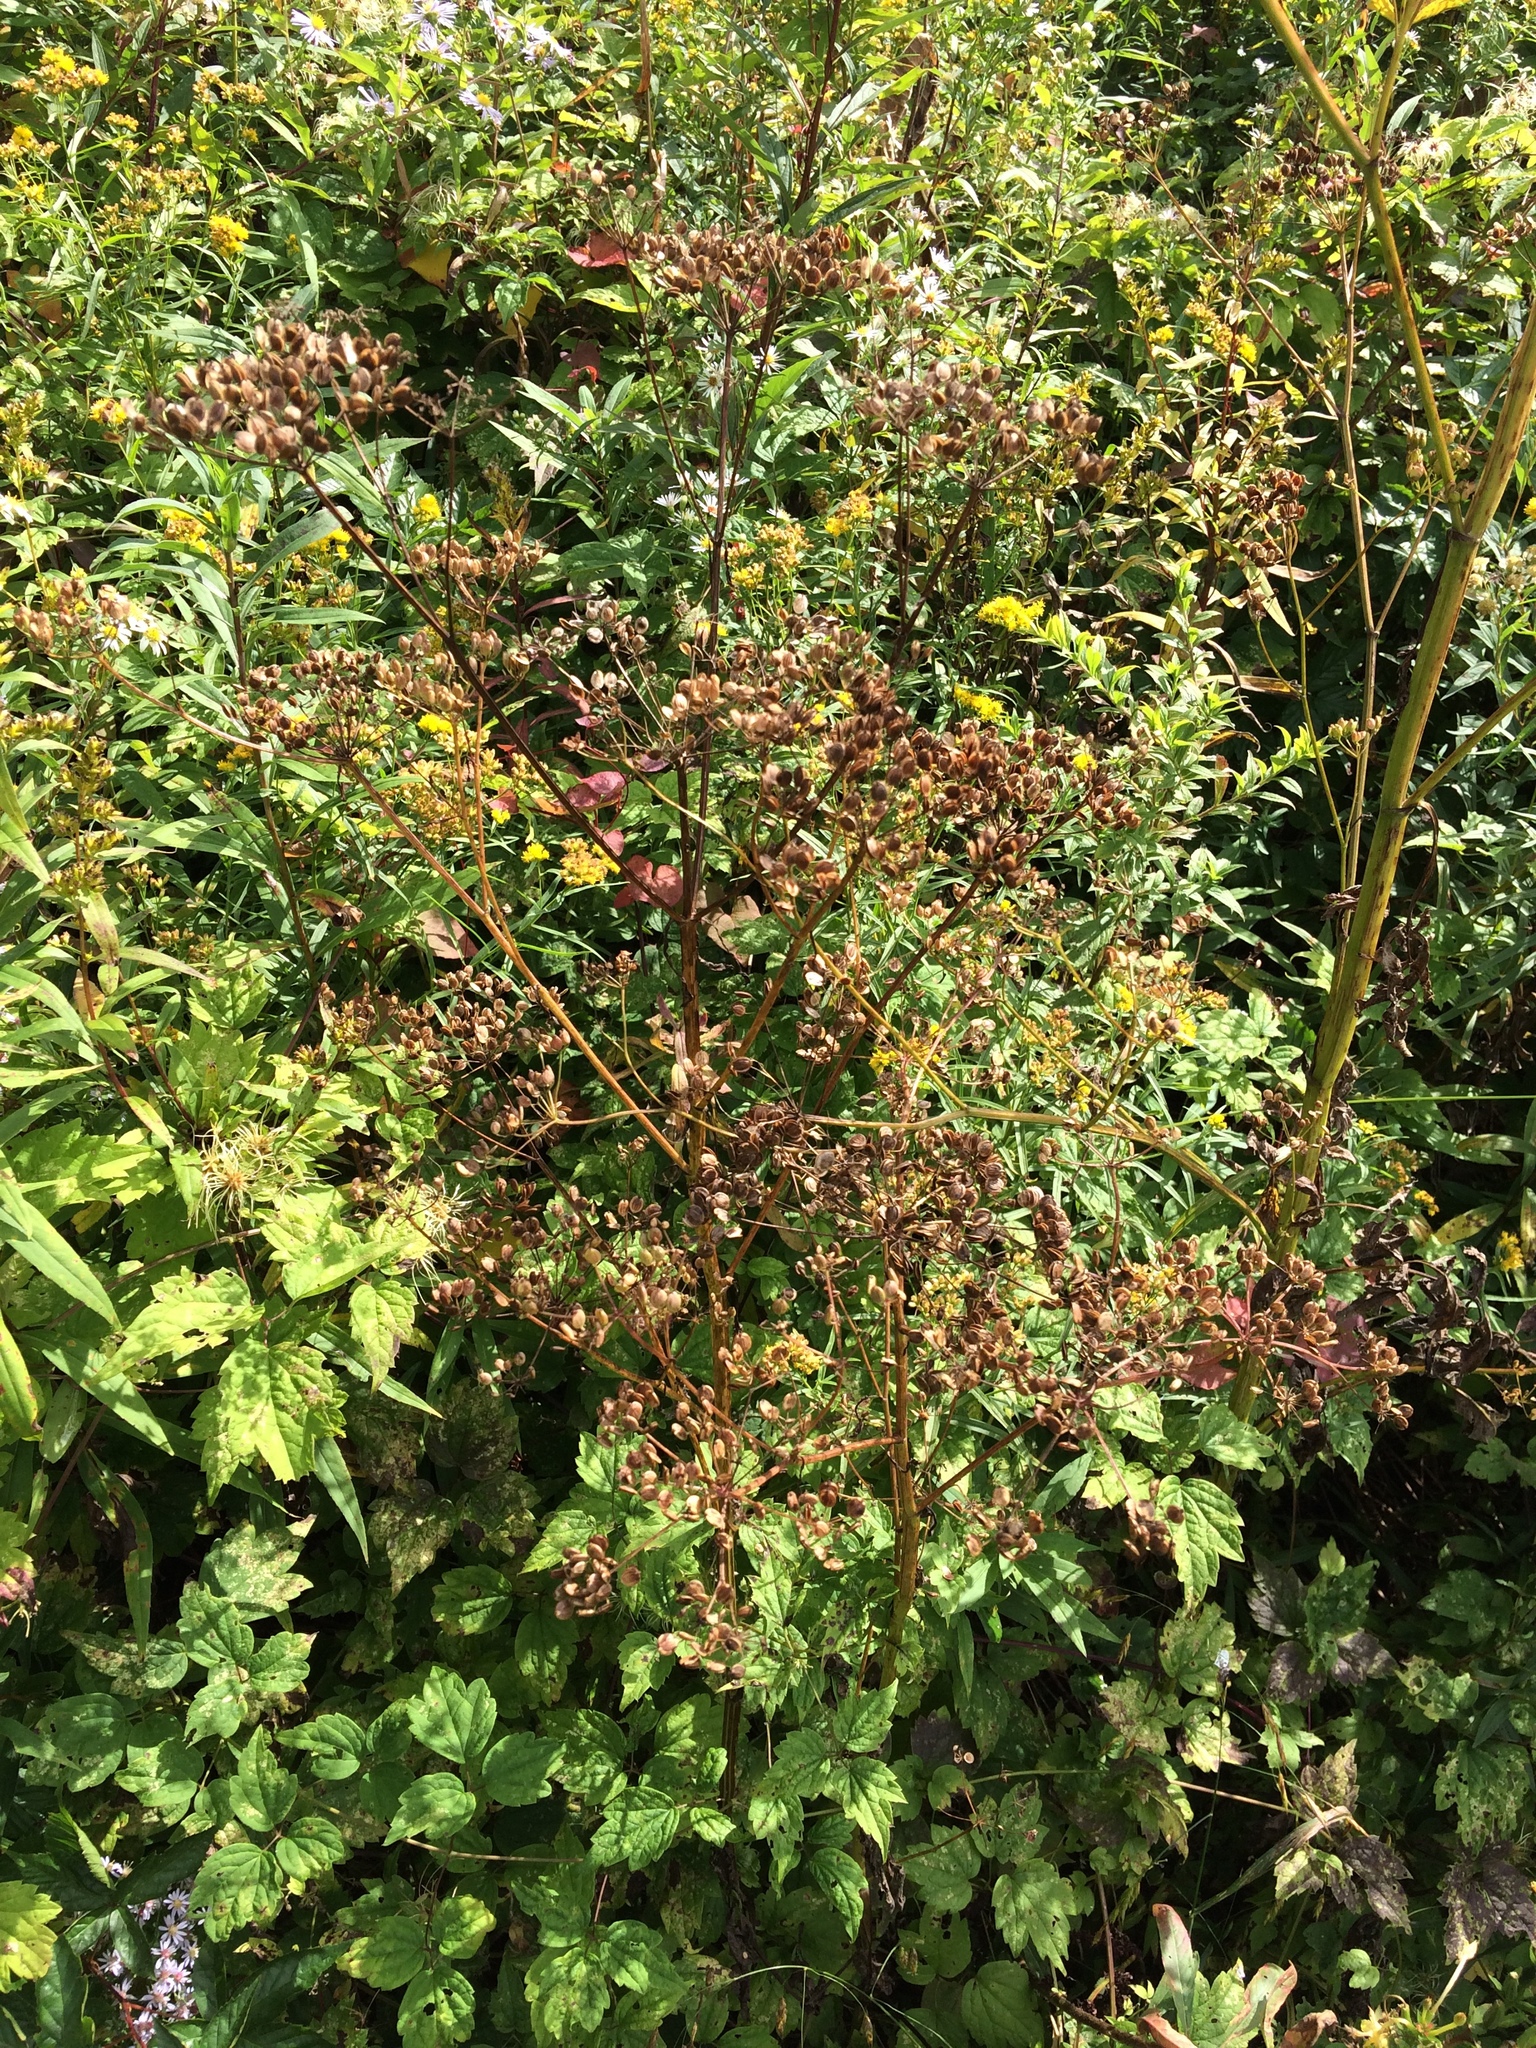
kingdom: Plantae
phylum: Tracheophyta
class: Magnoliopsida
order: Apiales
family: Apiaceae
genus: Pastinaca
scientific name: Pastinaca sativa
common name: Wild parsnip
